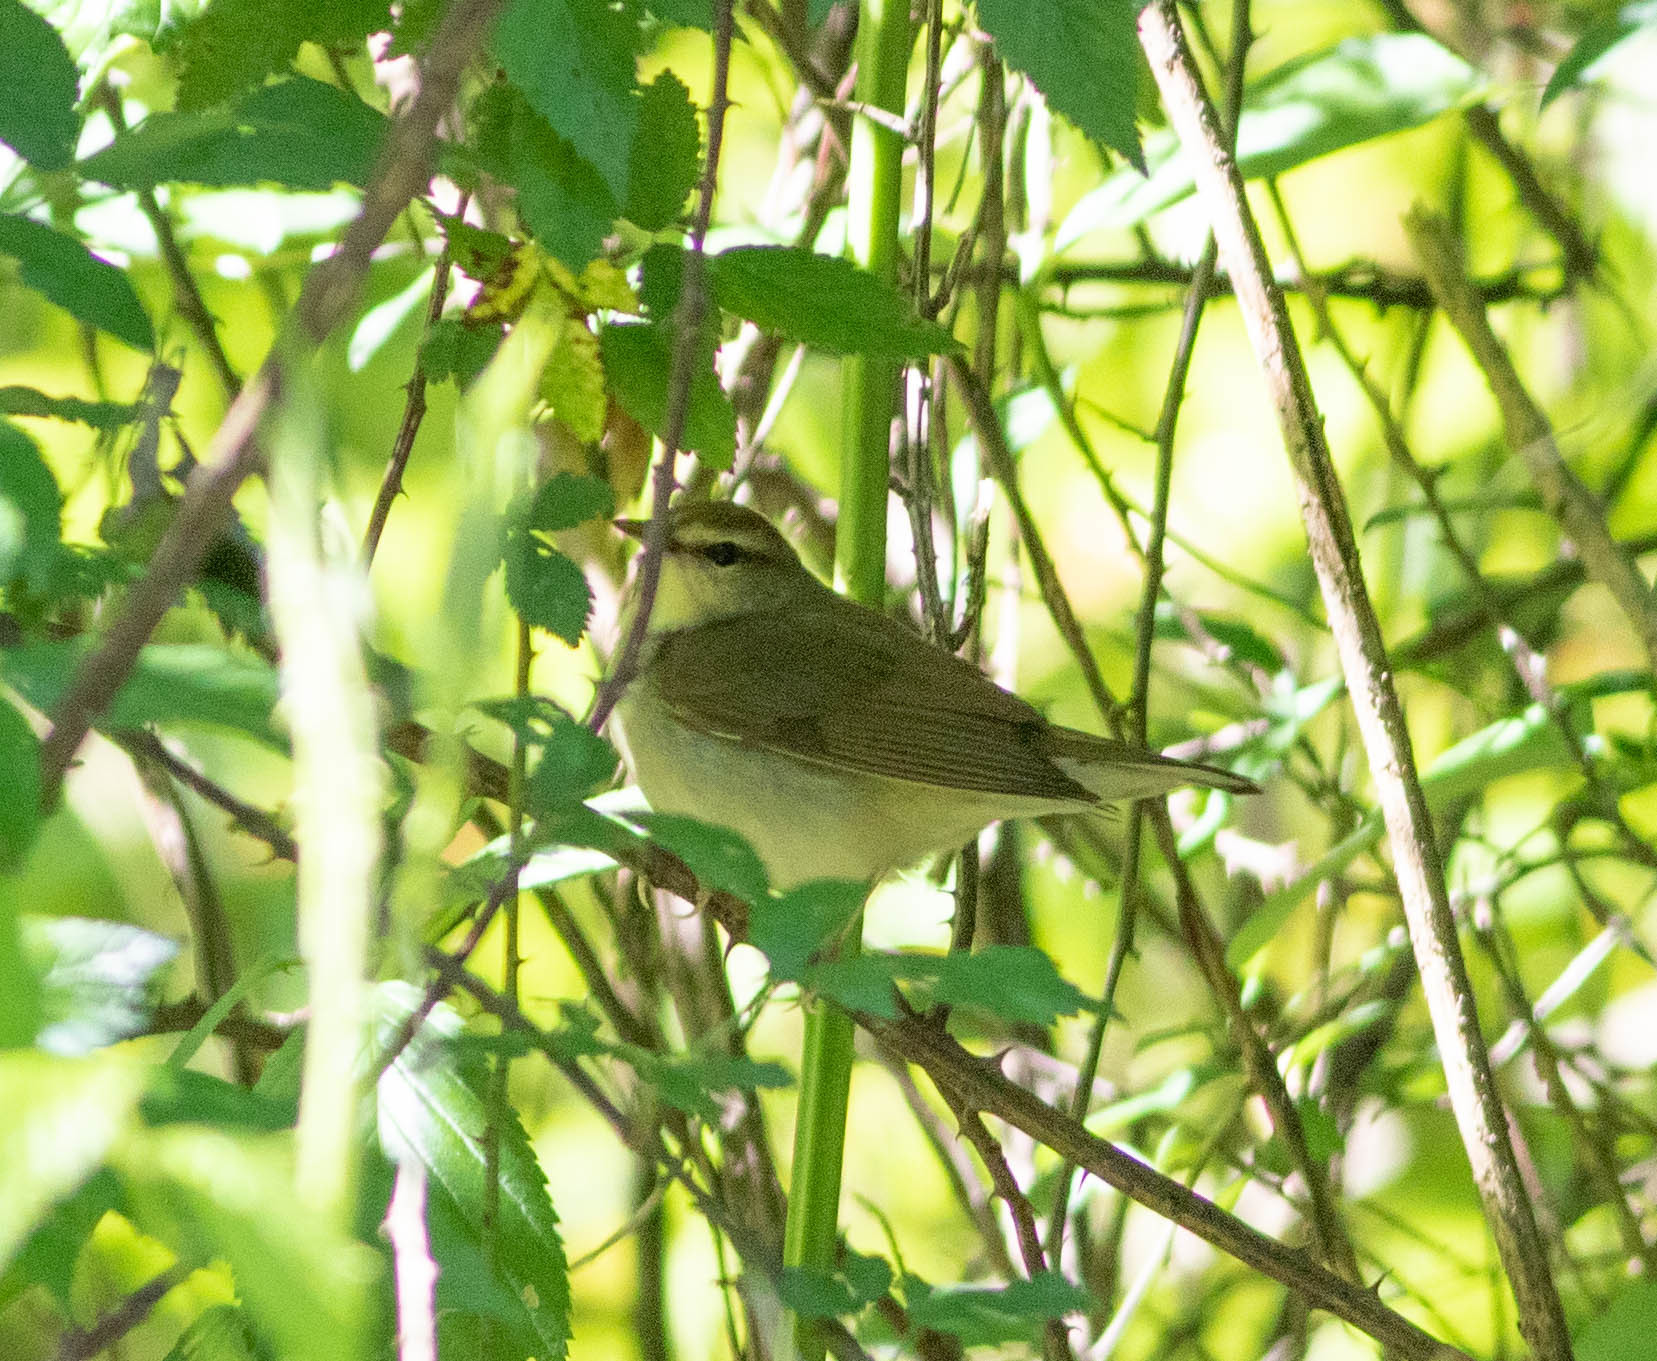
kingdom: Animalia
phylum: Chordata
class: Aves
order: Passeriformes
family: Parulidae
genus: Limnothlypis
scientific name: Limnothlypis swainsonii
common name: Swainson's warbler
